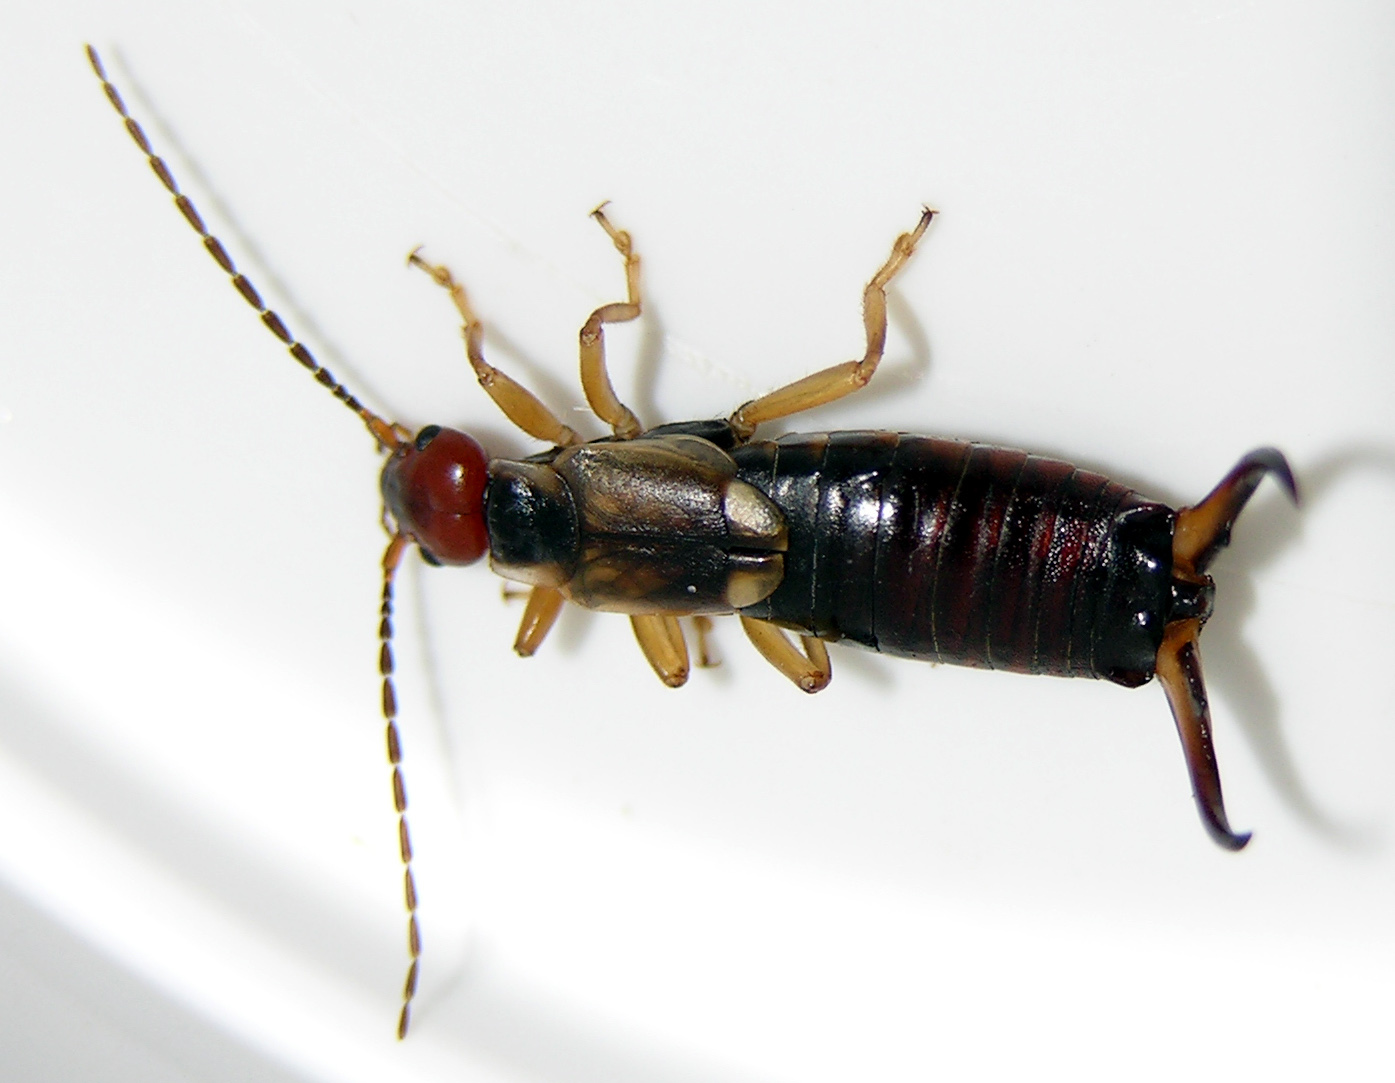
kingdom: Animalia
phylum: Arthropoda
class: Insecta
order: Dermaptera
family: Forficulidae
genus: Forficula
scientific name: Forficula
